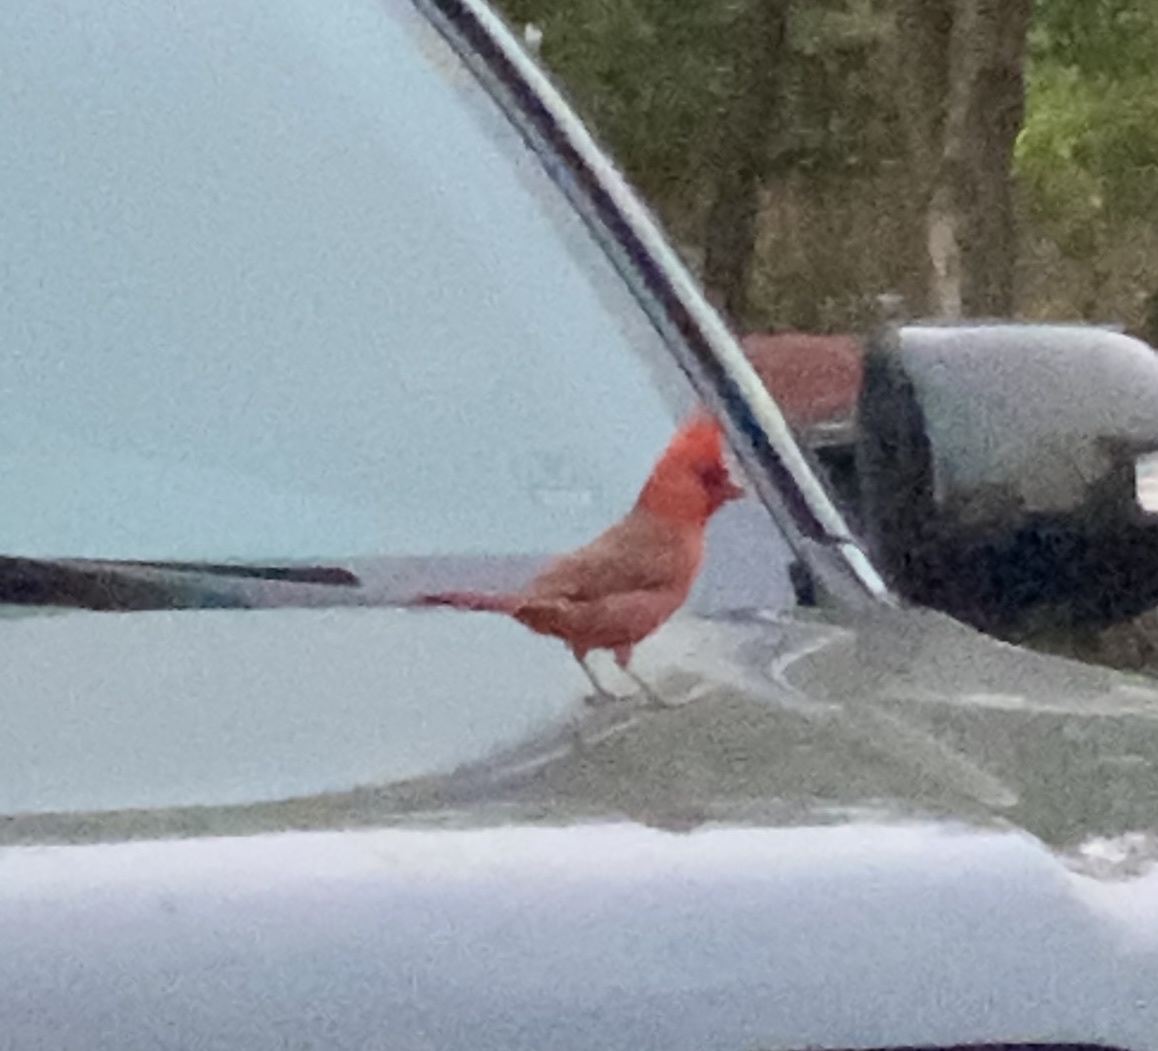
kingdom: Animalia
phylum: Chordata
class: Aves
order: Passeriformes
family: Cardinalidae
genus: Cardinalis
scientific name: Cardinalis cardinalis
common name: Northern cardinal
